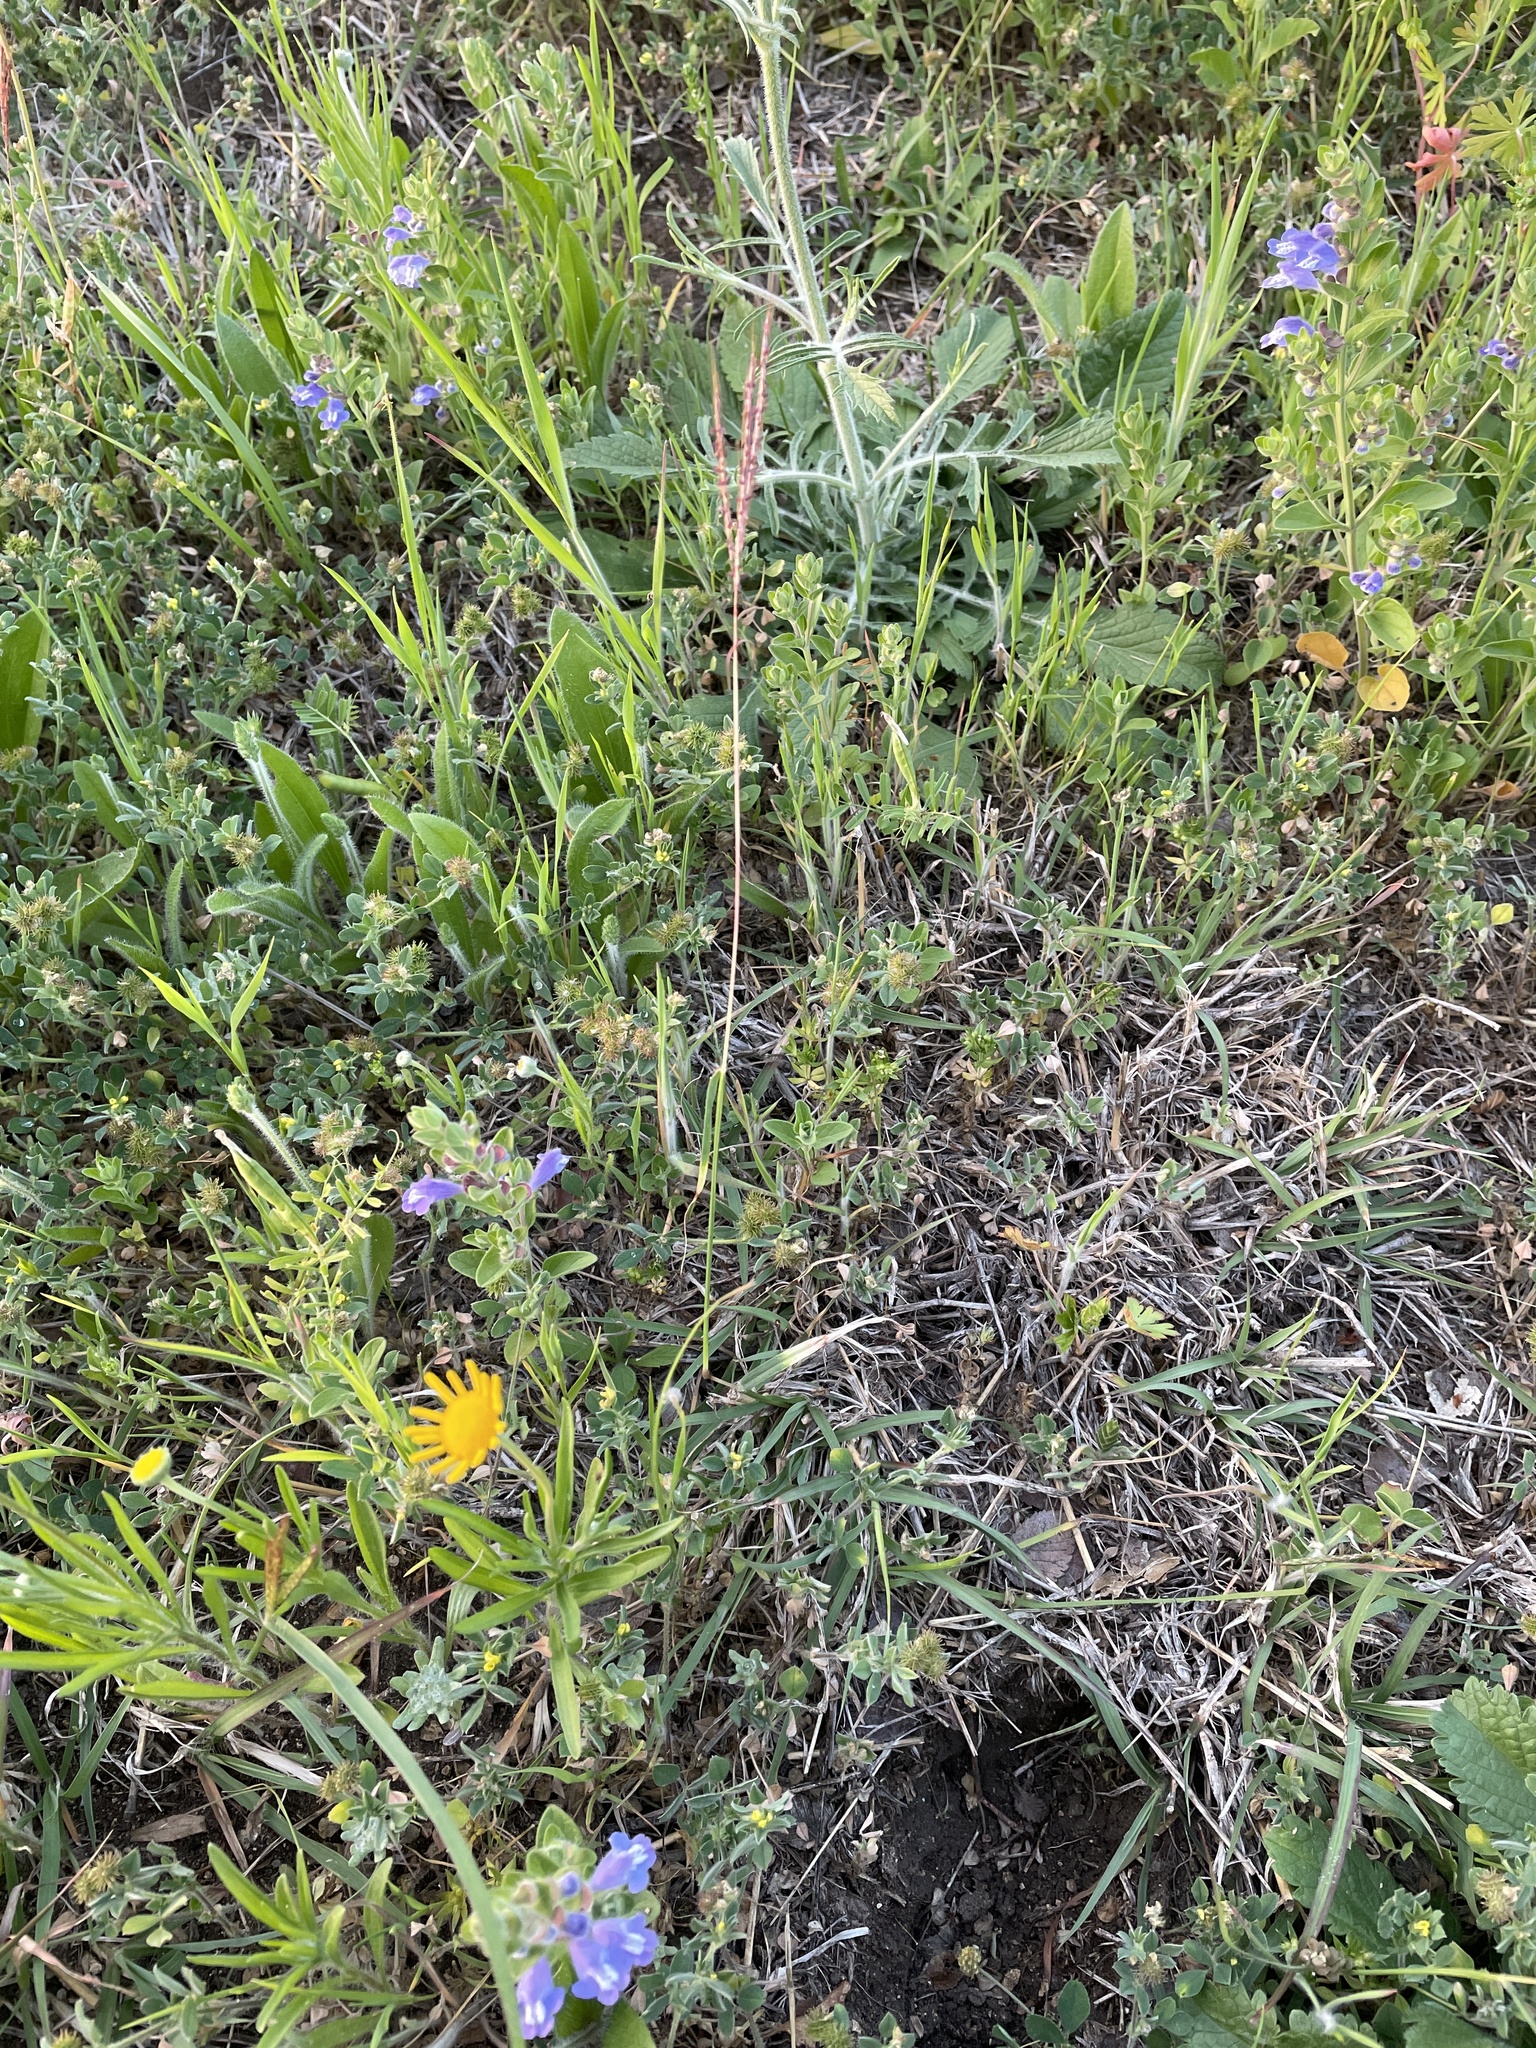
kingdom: Plantae
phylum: Tracheophyta
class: Liliopsida
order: Poales
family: Poaceae
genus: Bothriochloa
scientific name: Bothriochloa ischaemum
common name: Yellow bluestem
